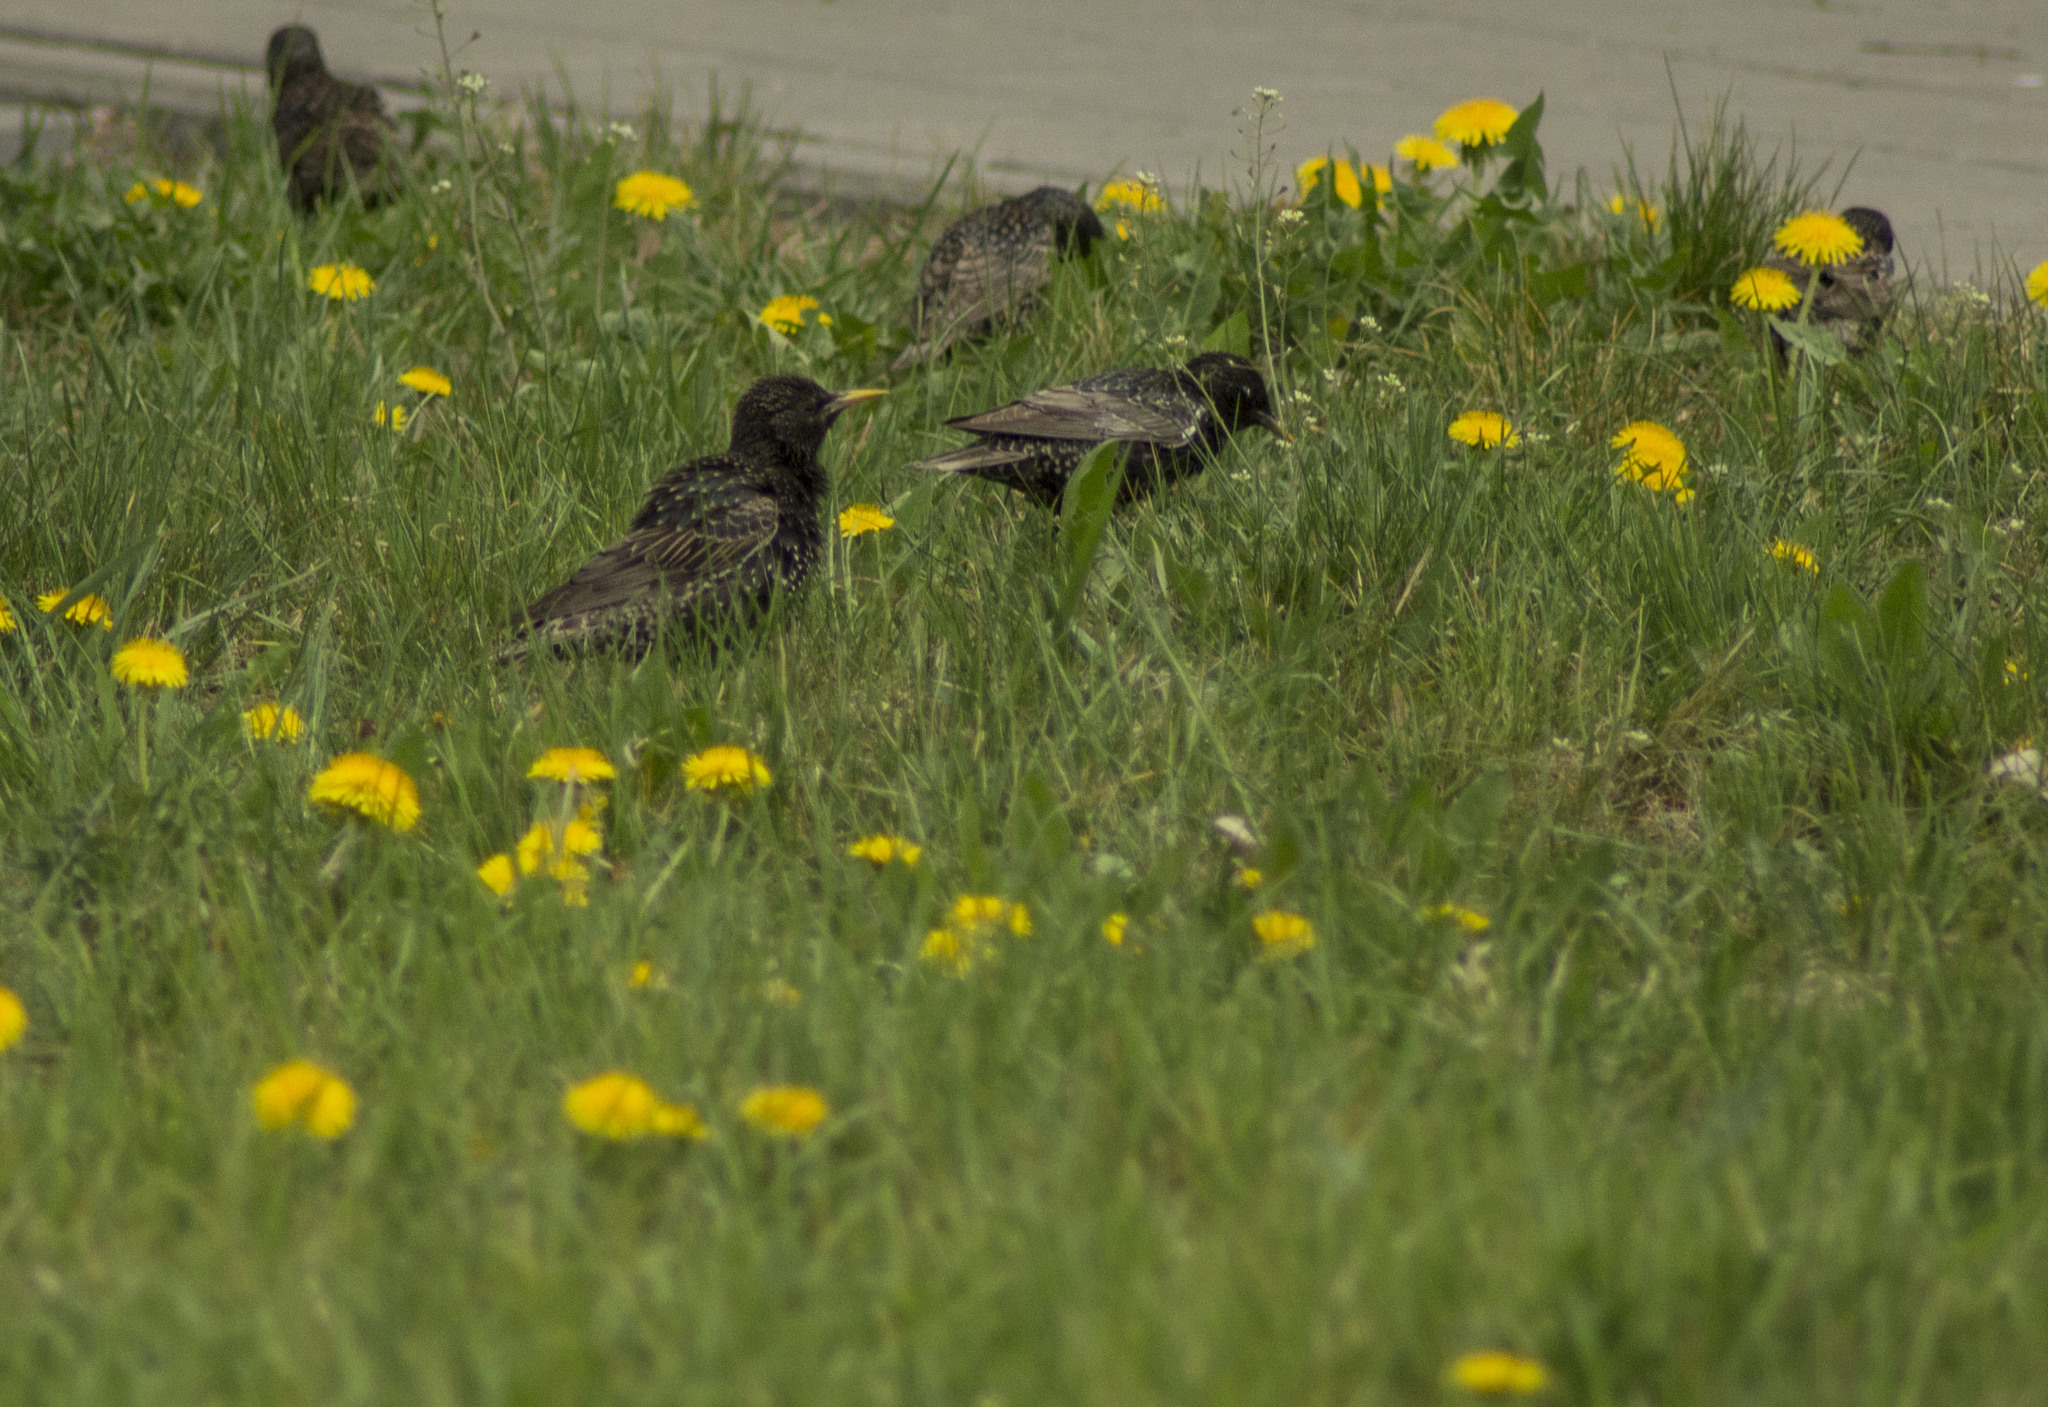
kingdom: Animalia
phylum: Chordata
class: Aves
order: Passeriformes
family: Sturnidae
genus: Sturnus
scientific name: Sturnus vulgaris
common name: Common starling
